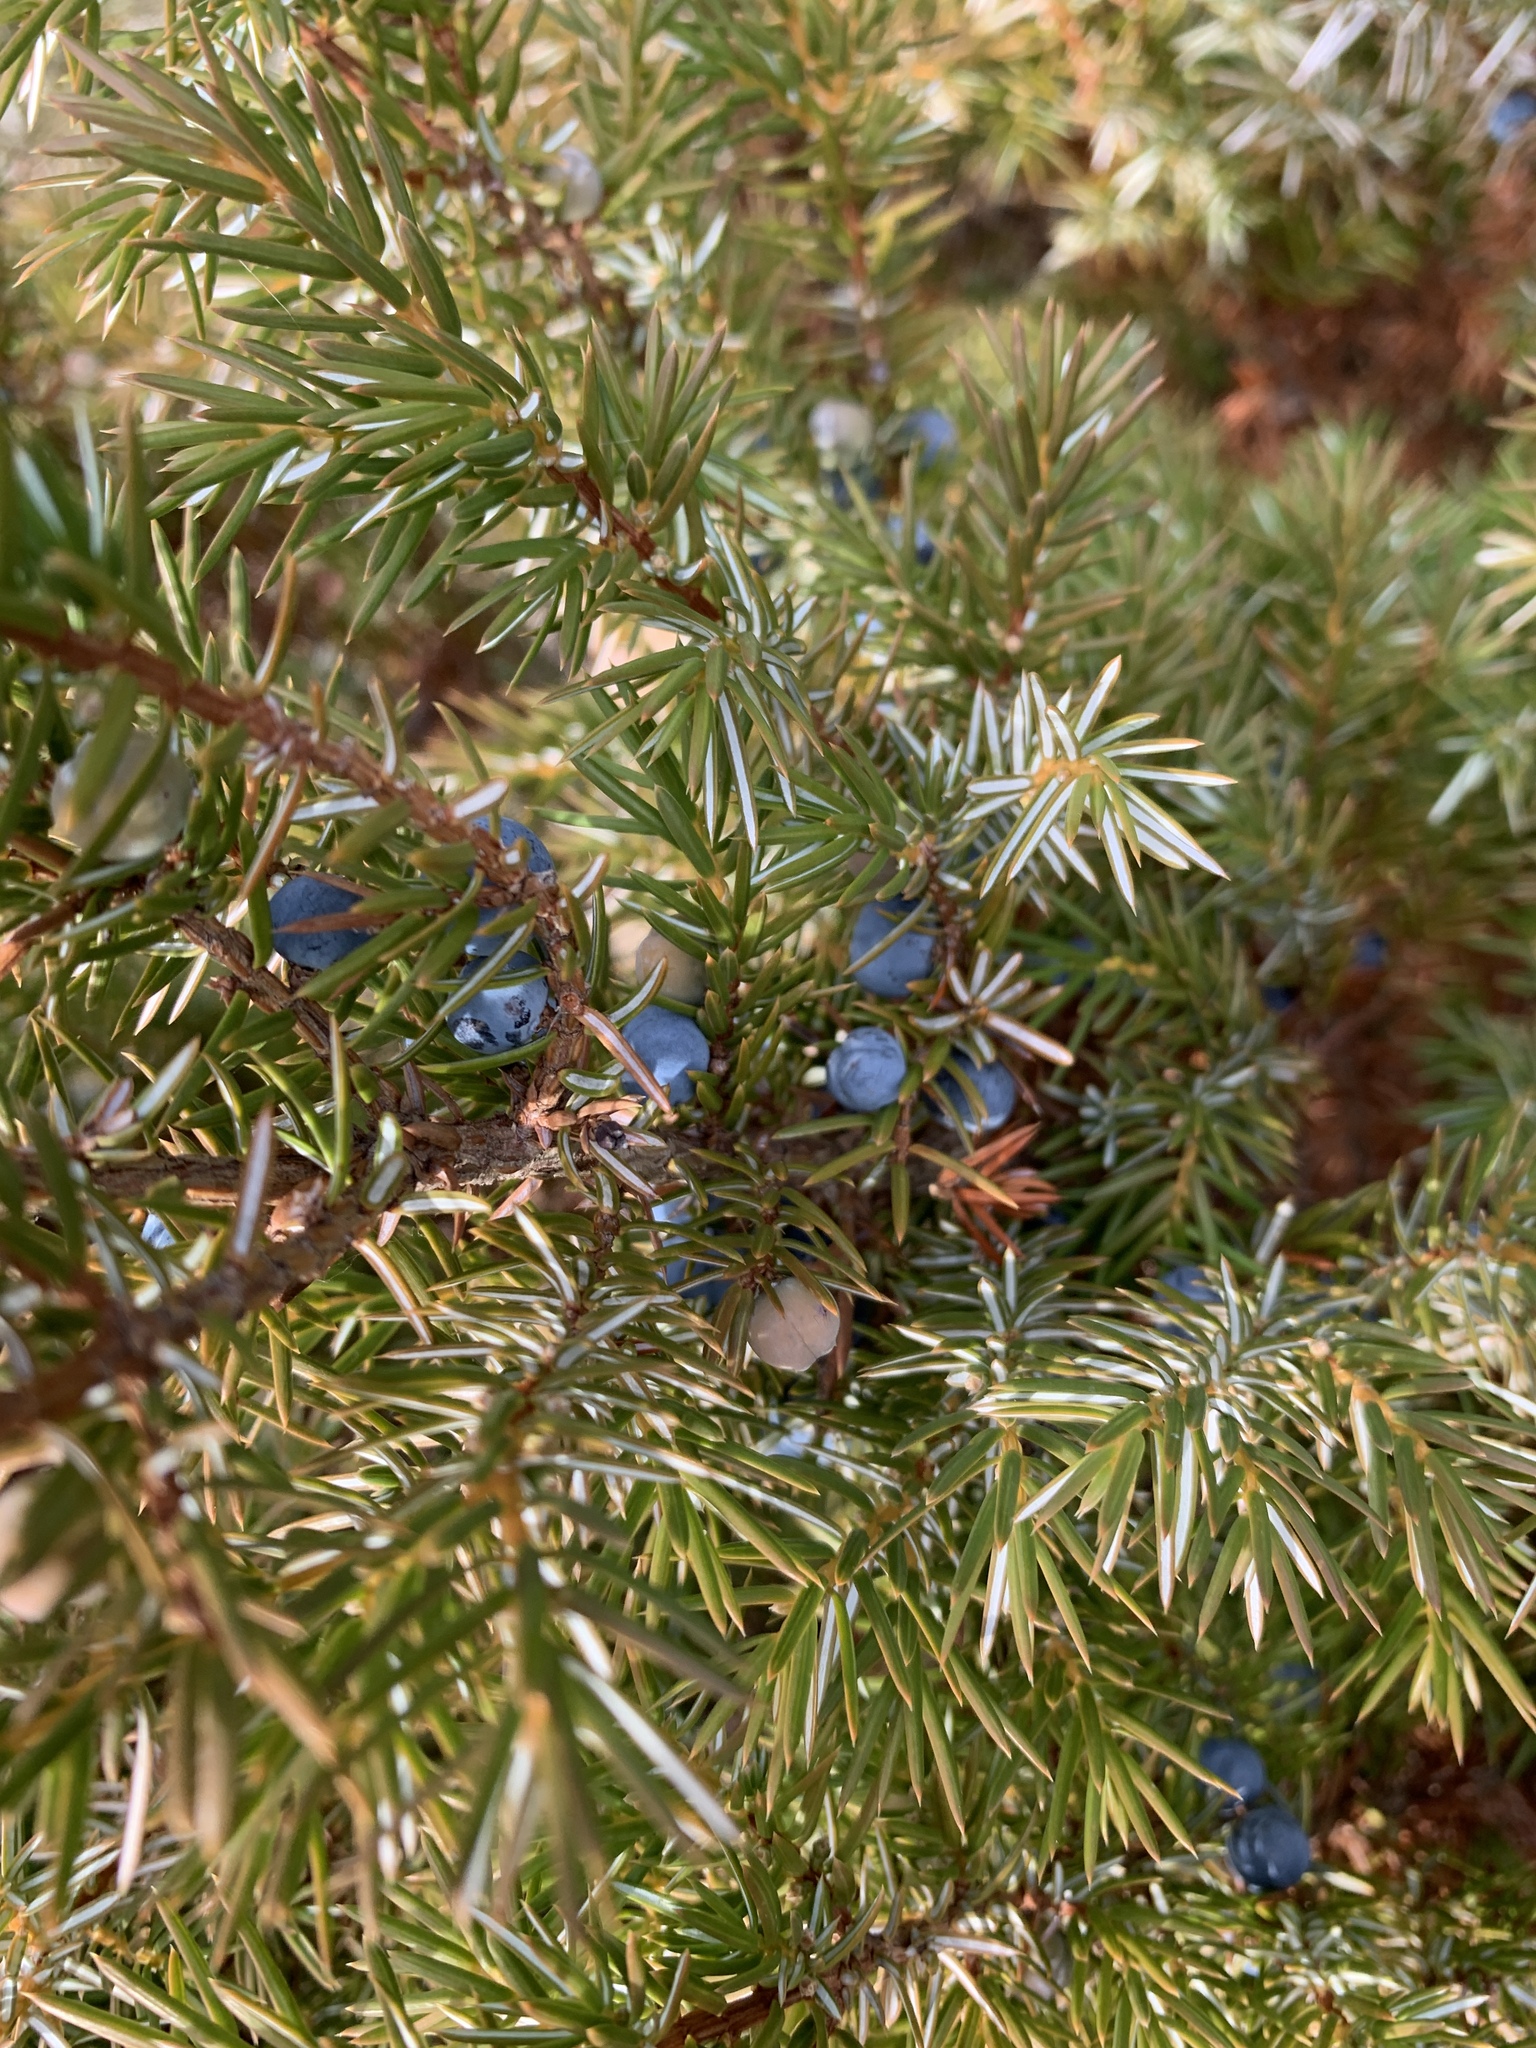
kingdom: Plantae
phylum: Tracheophyta
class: Pinopsida
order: Pinales
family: Cupressaceae
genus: Juniperus
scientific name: Juniperus communis
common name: Common juniper
